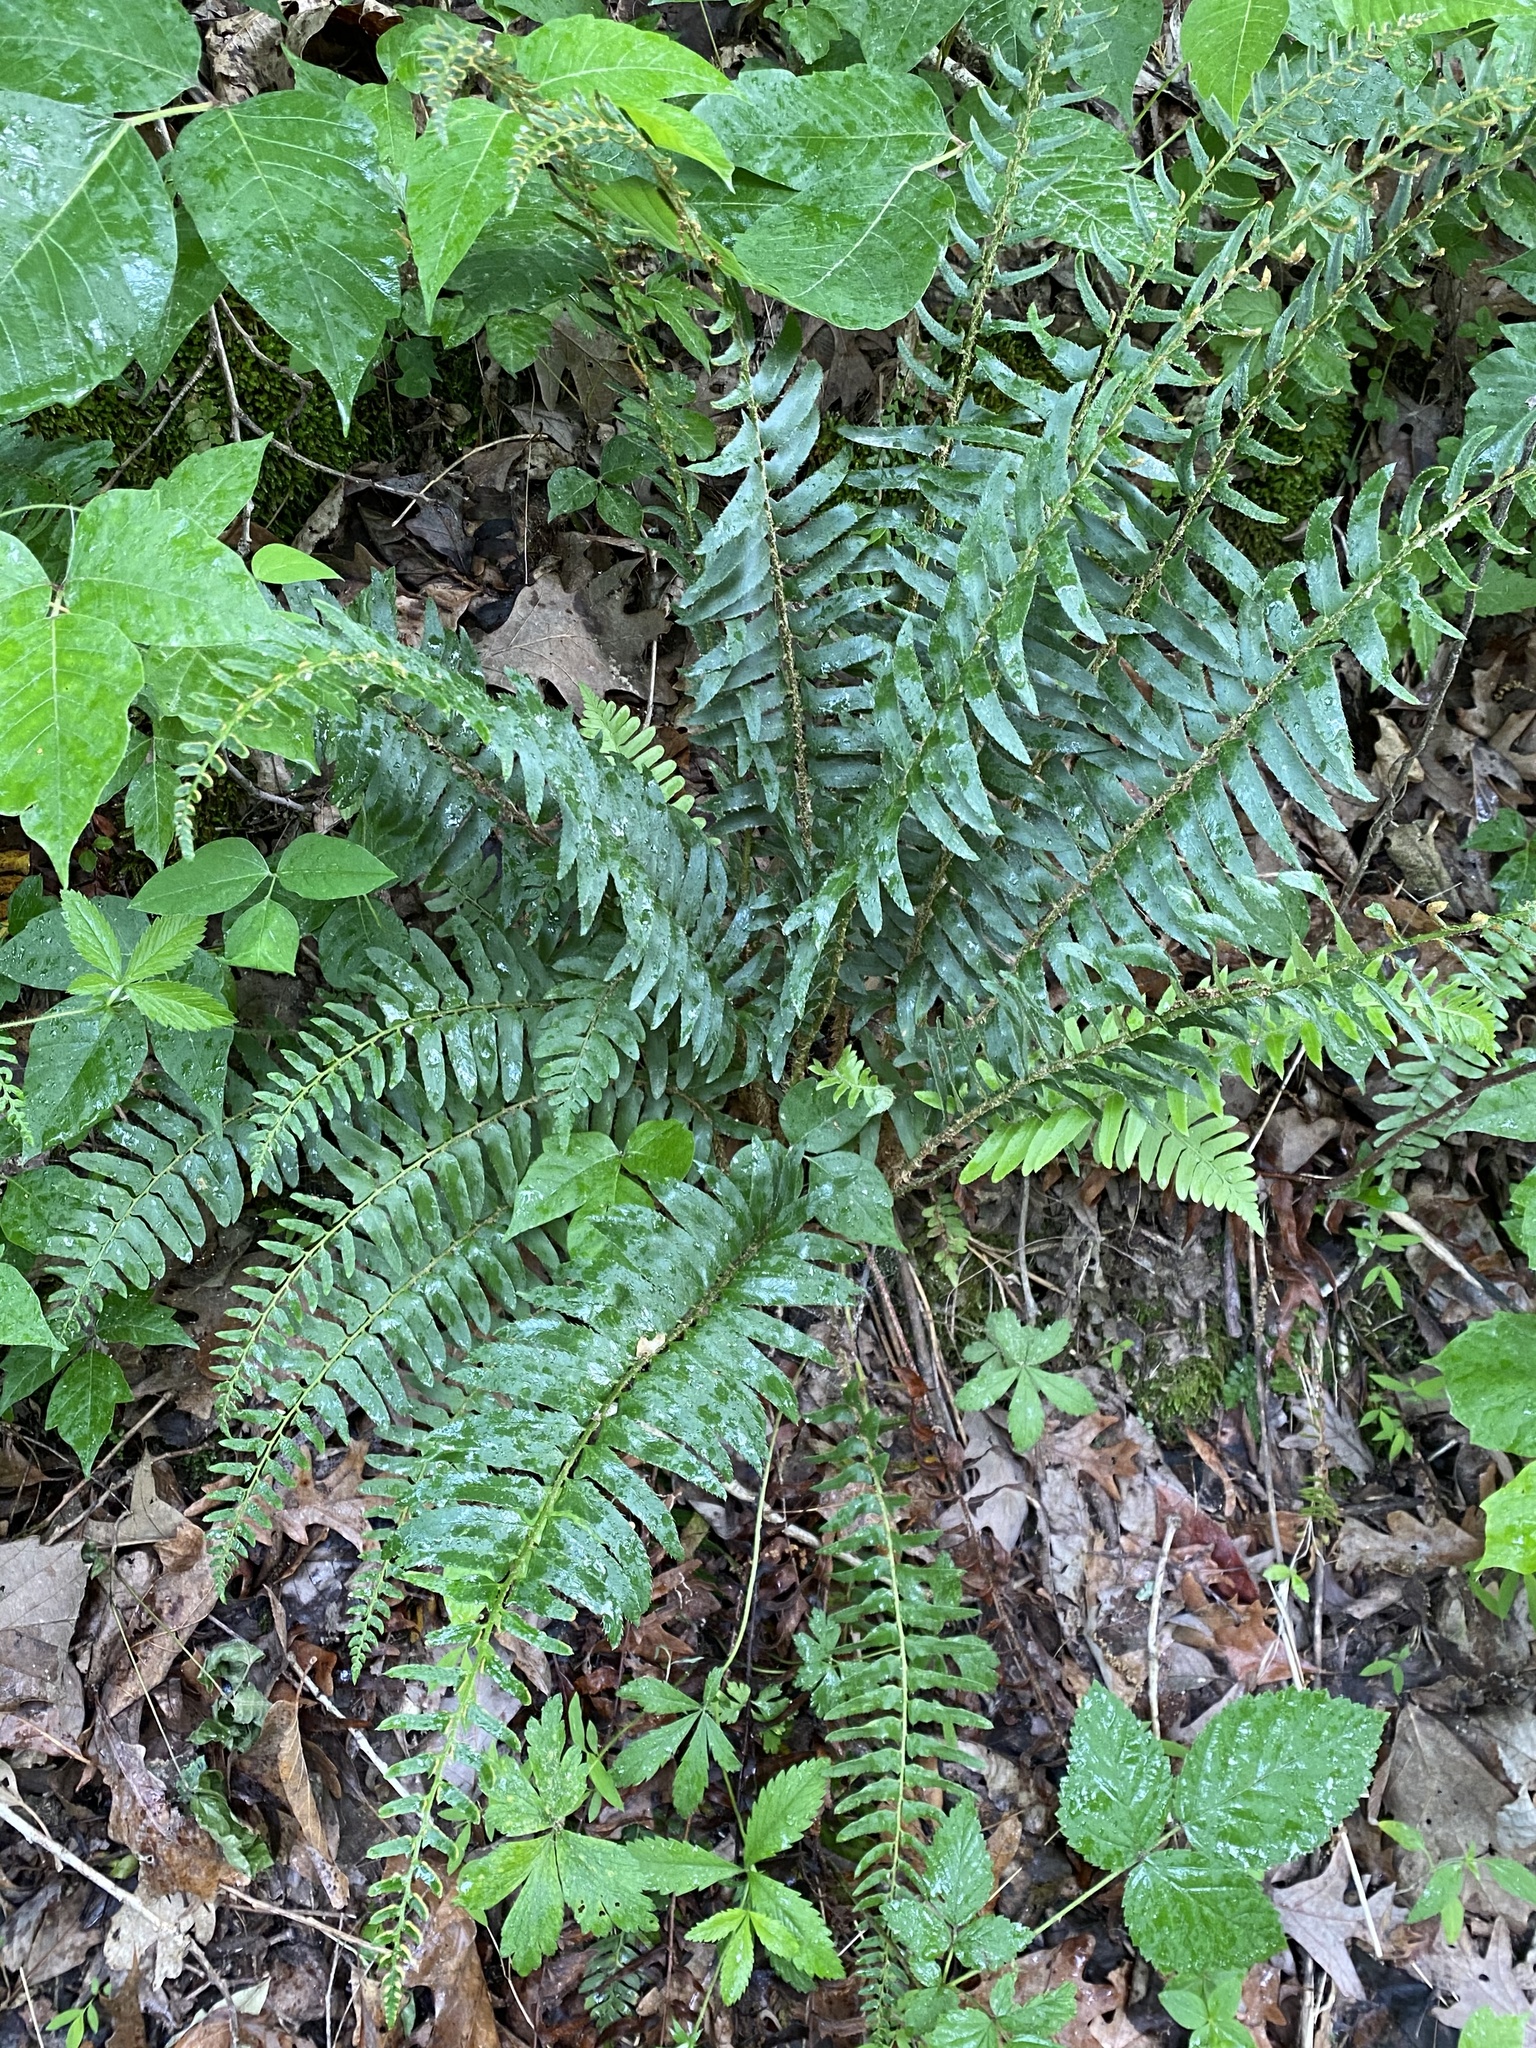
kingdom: Plantae
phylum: Tracheophyta
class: Polypodiopsida
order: Polypodiales
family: Dryopteridaceae
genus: Polystichum
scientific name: Polystichum acrostichoides
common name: Christmas fern
